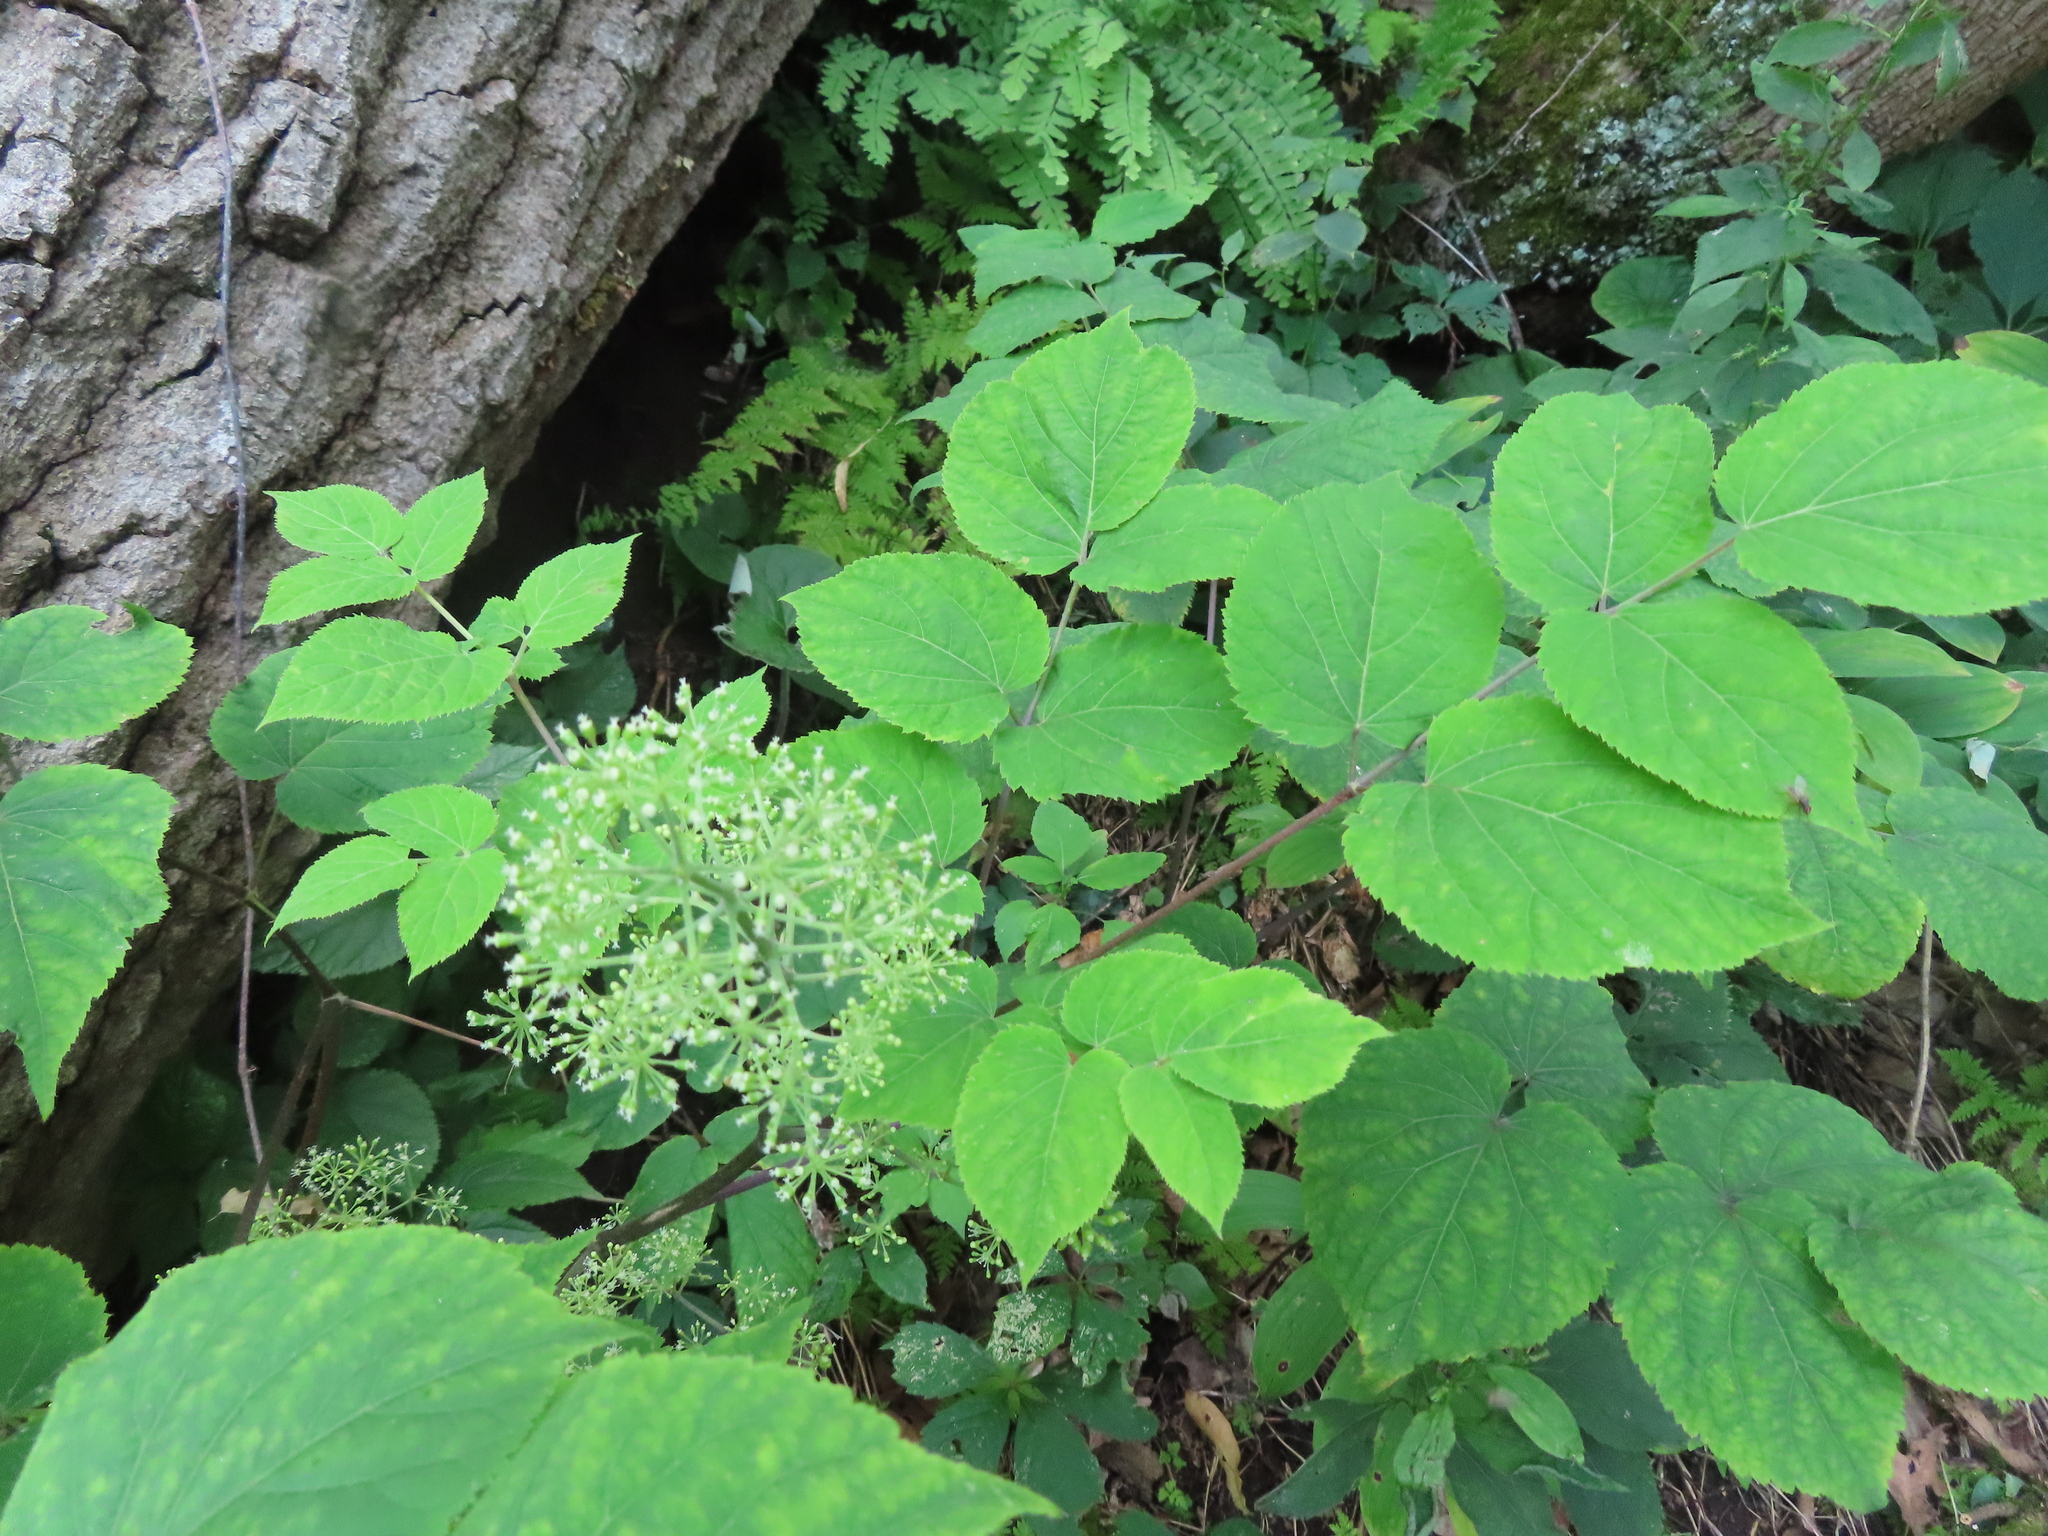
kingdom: Plantae
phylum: Tracheophyta
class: Magnoliopsida
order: Apiales
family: Araliaceae
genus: Aralia
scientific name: Aralia racemosa
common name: American-spikenard
